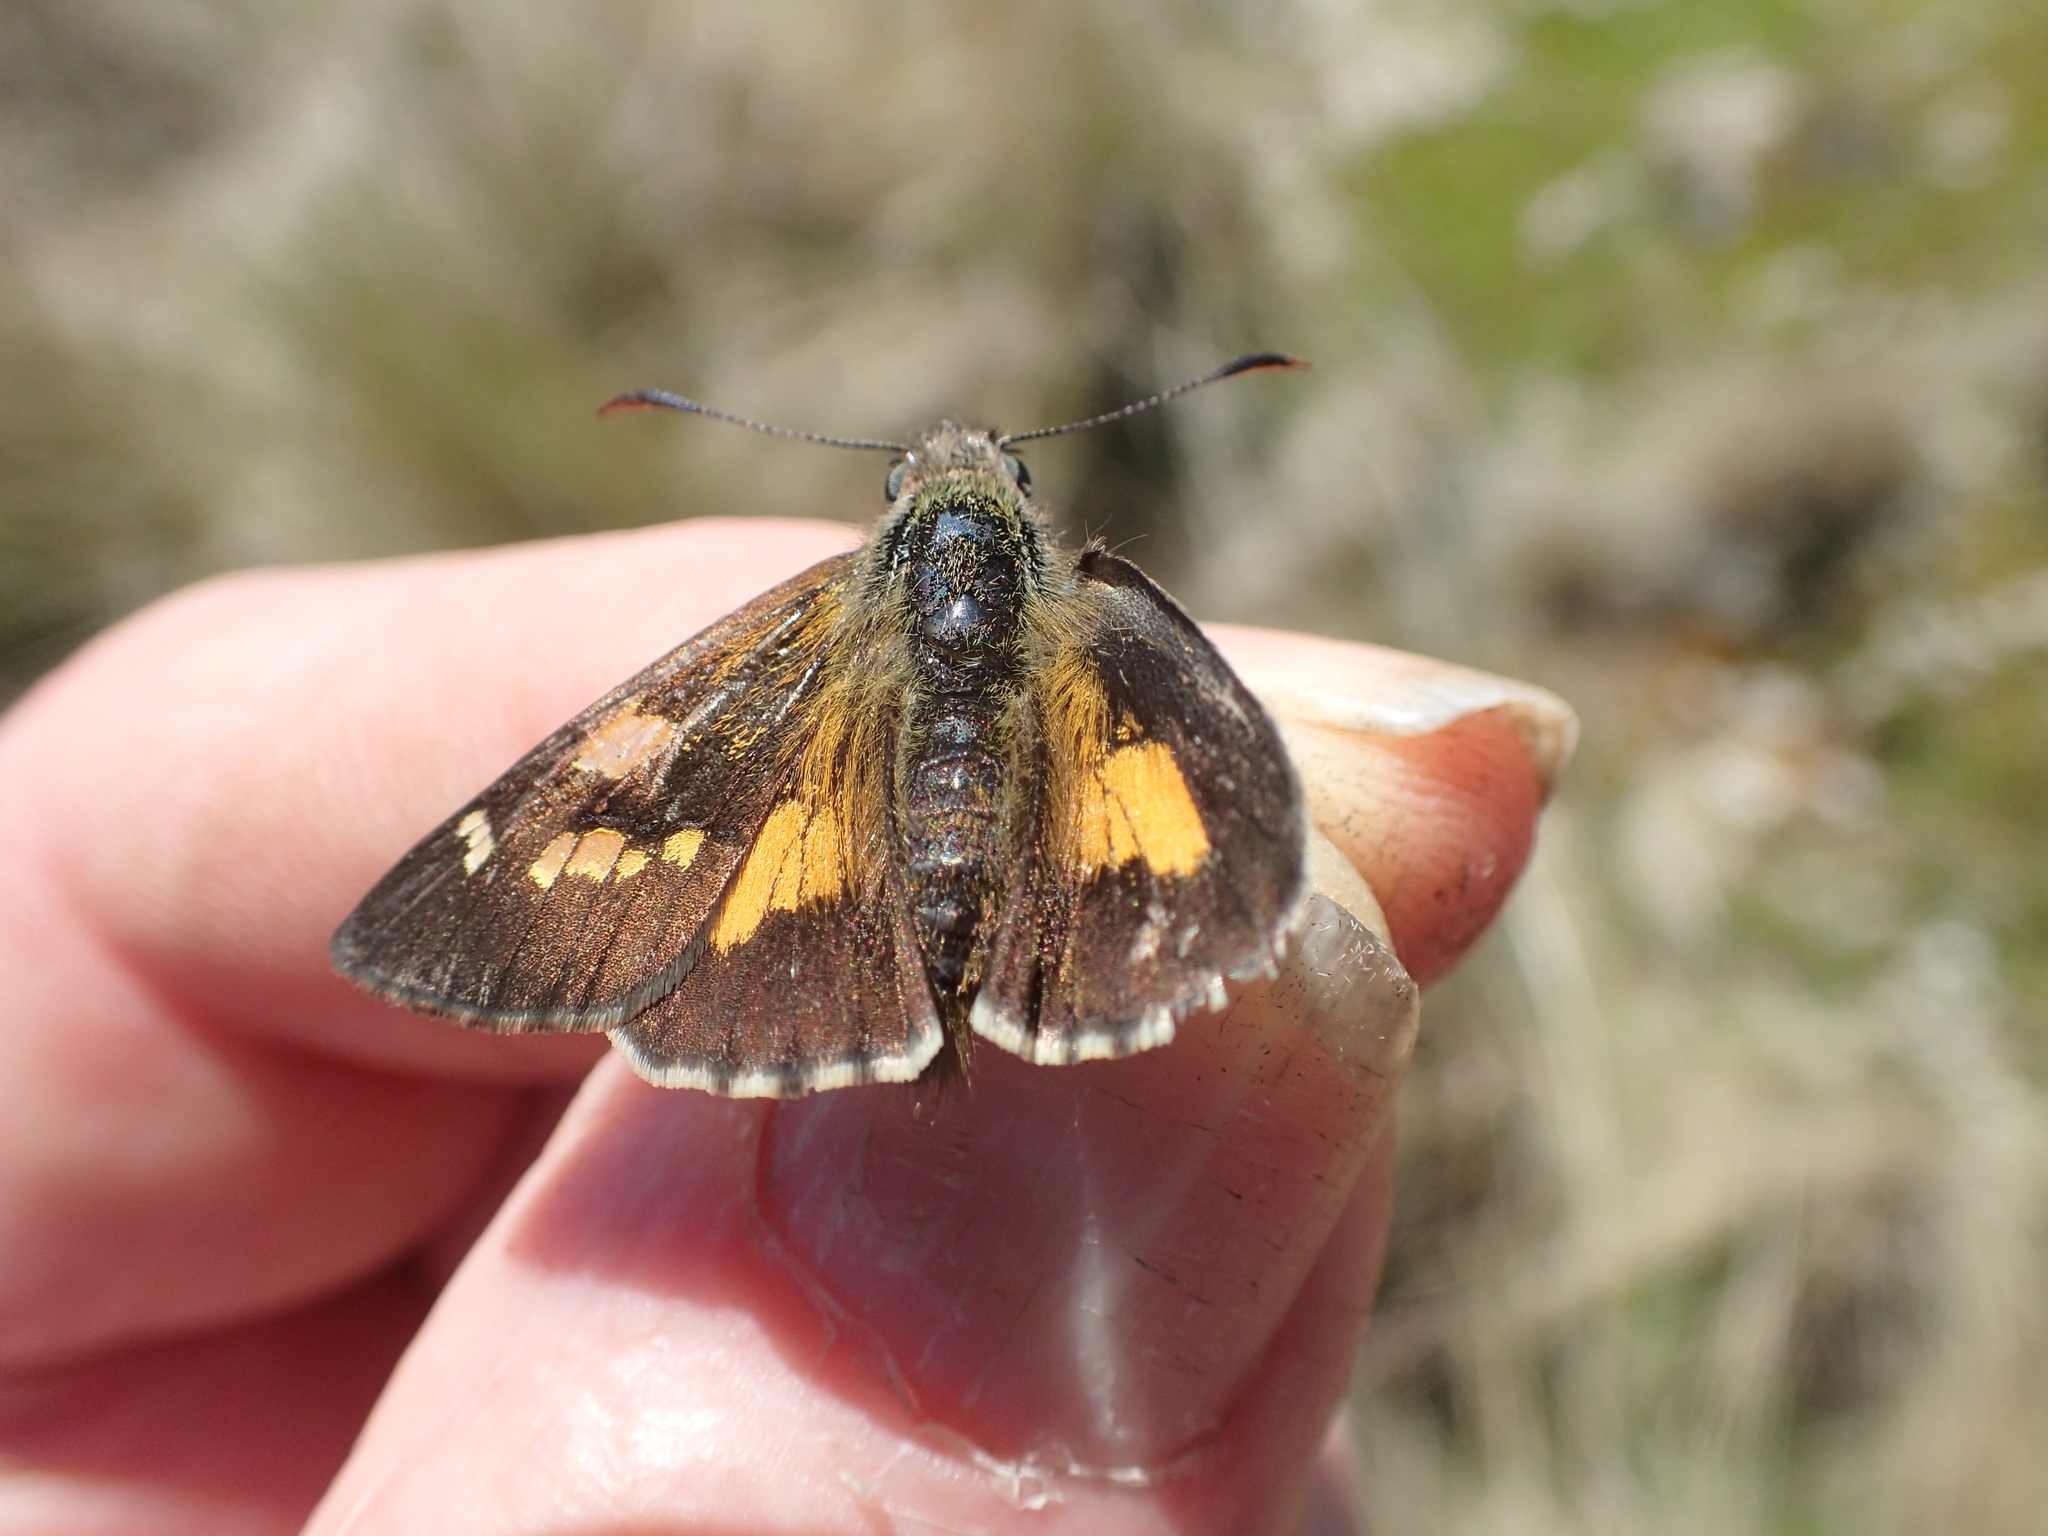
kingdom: Animalia
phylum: Arthropoda
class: Insecta
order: Lepidoptera
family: Hesperiidae
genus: Hesperilla
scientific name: Hesperilla donnysa
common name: Varied sedge-skipper
